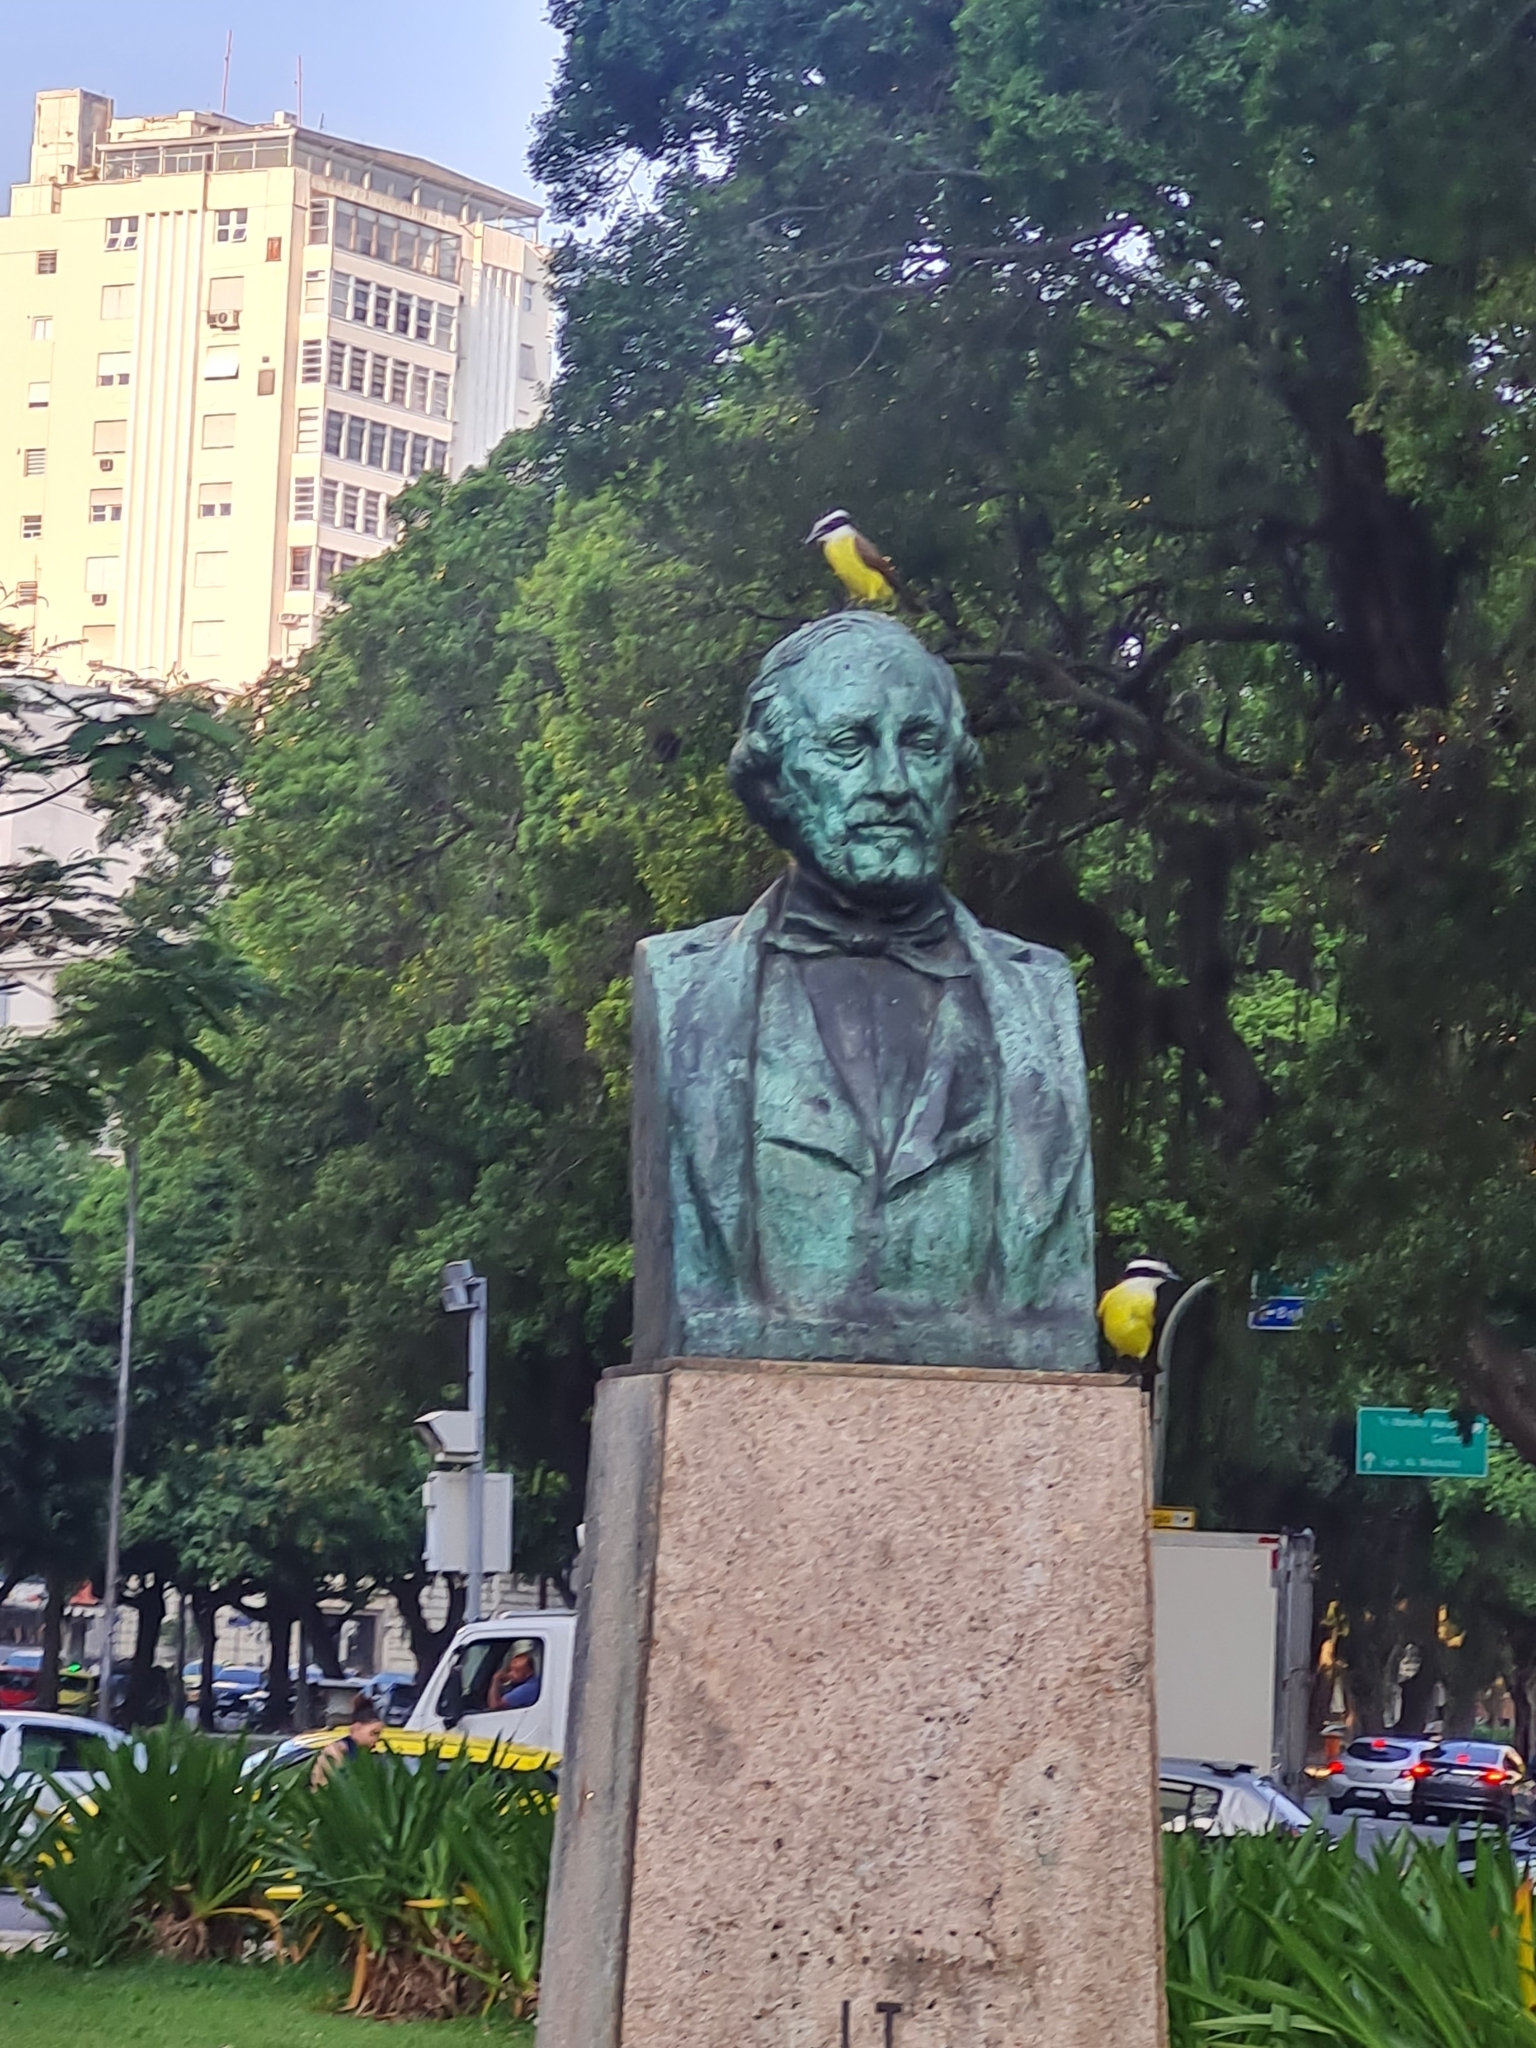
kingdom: Animalia
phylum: Chordata
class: Aves
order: Passeriformes
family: Tyrannidae
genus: Pitangus
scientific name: Pitangus sulphuratus
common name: Great kiskadee
